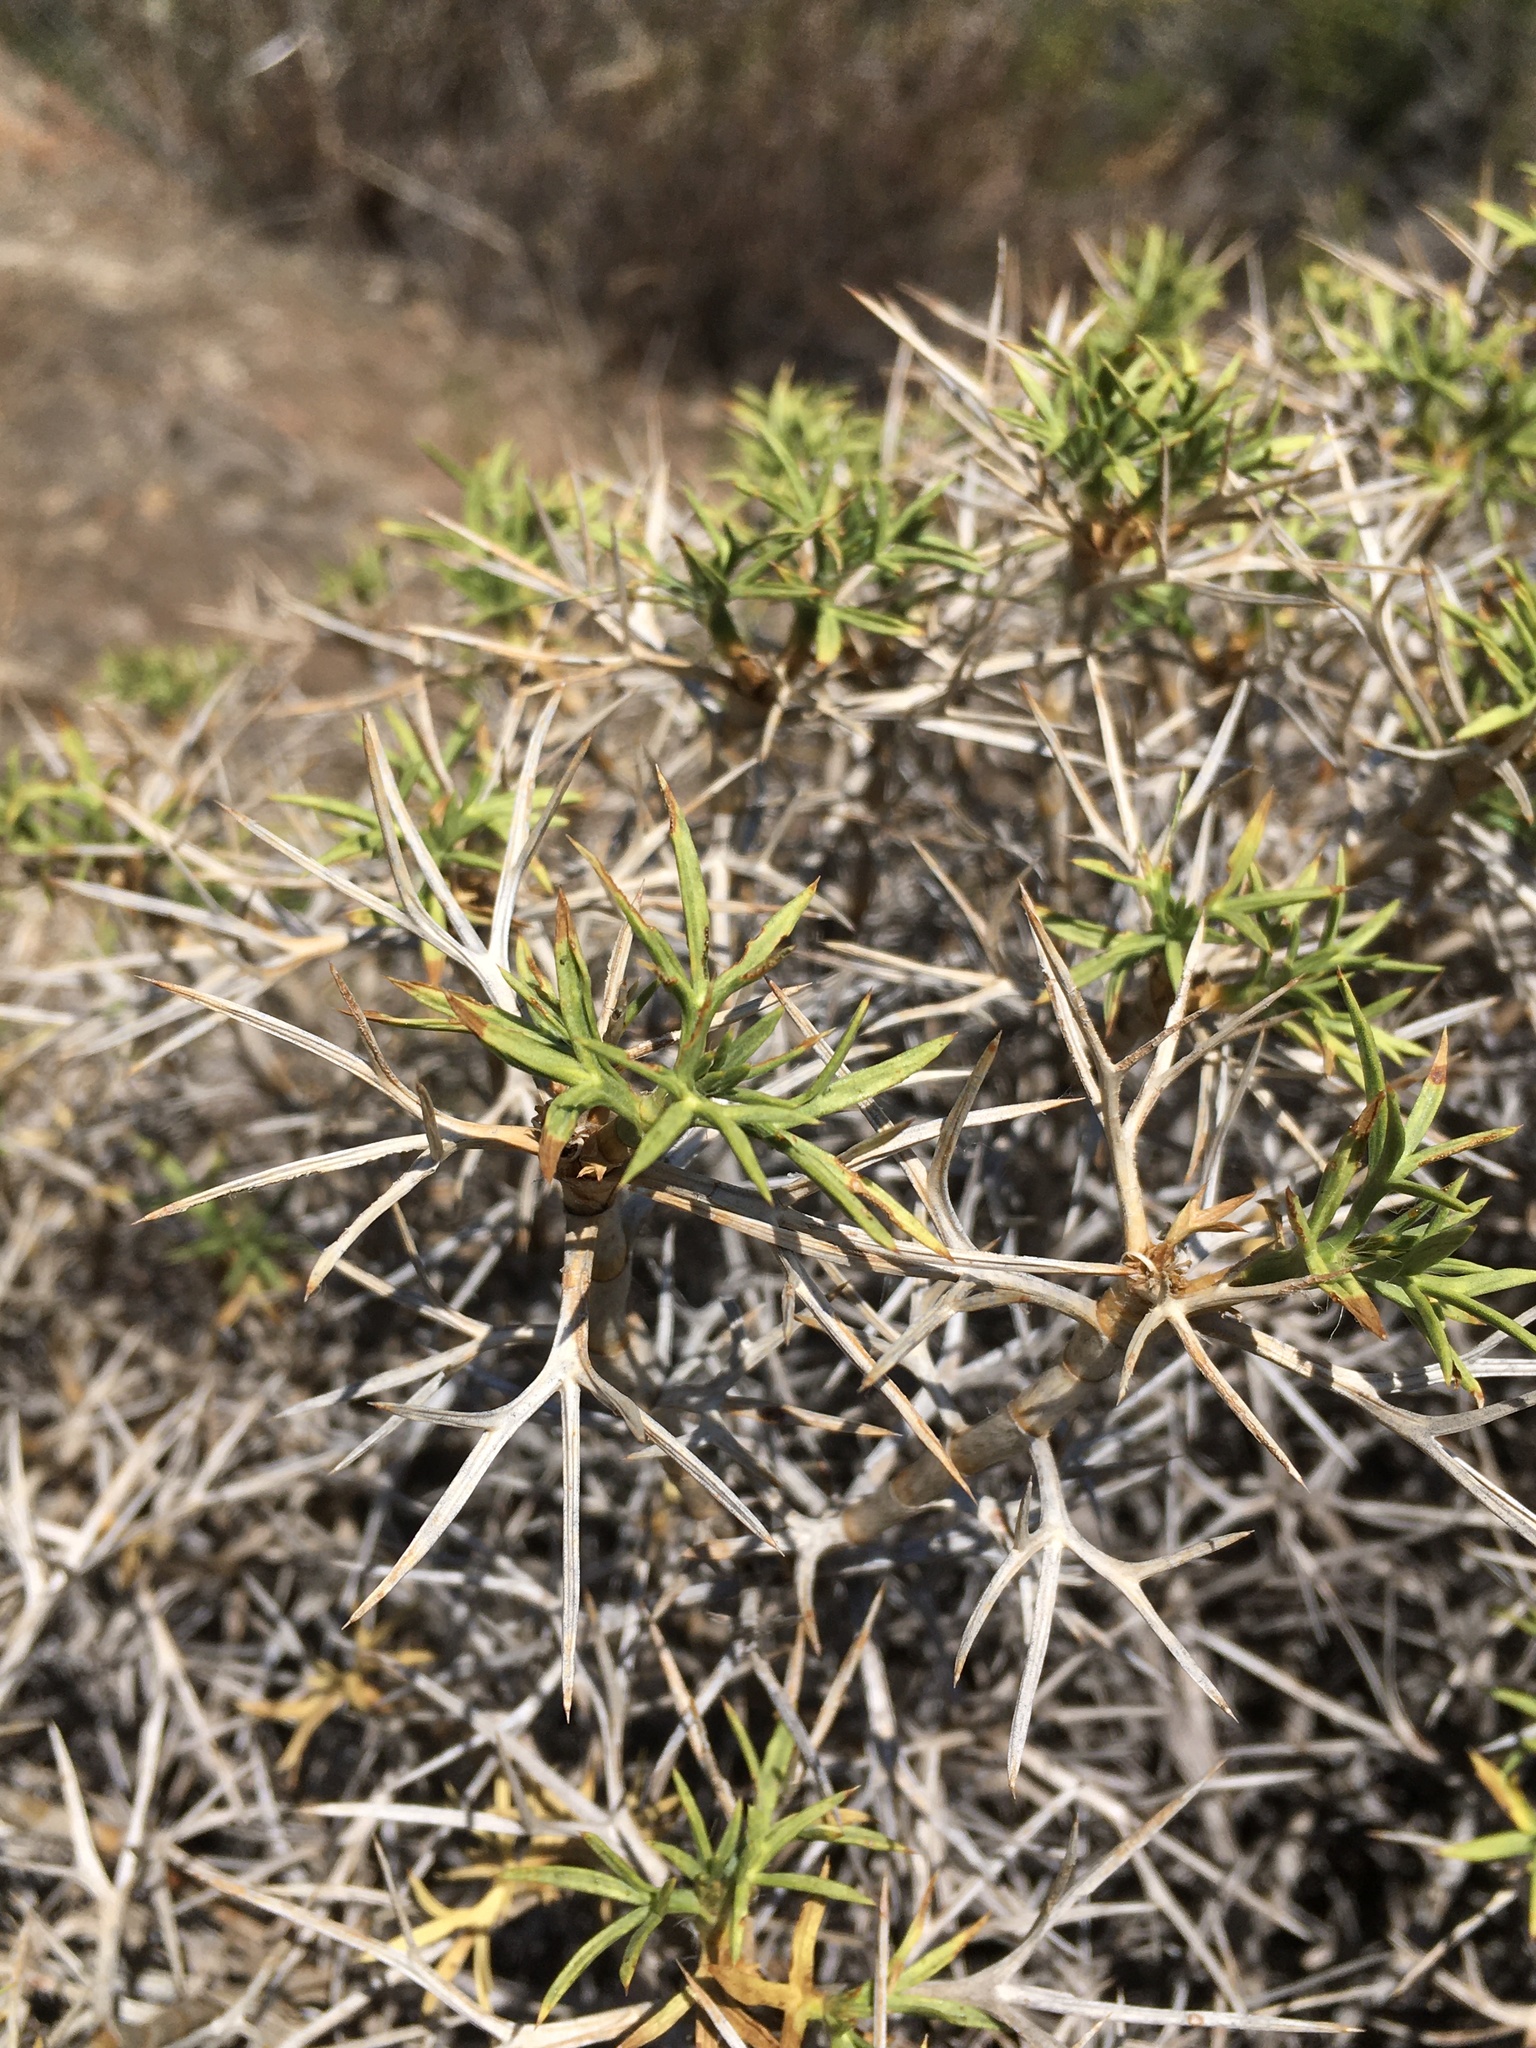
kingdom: Plantae
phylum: Tracheophyta
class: Magnoliopsida
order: Apiales
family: Apiaceae
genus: Azorella
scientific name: Azorella prolifera
